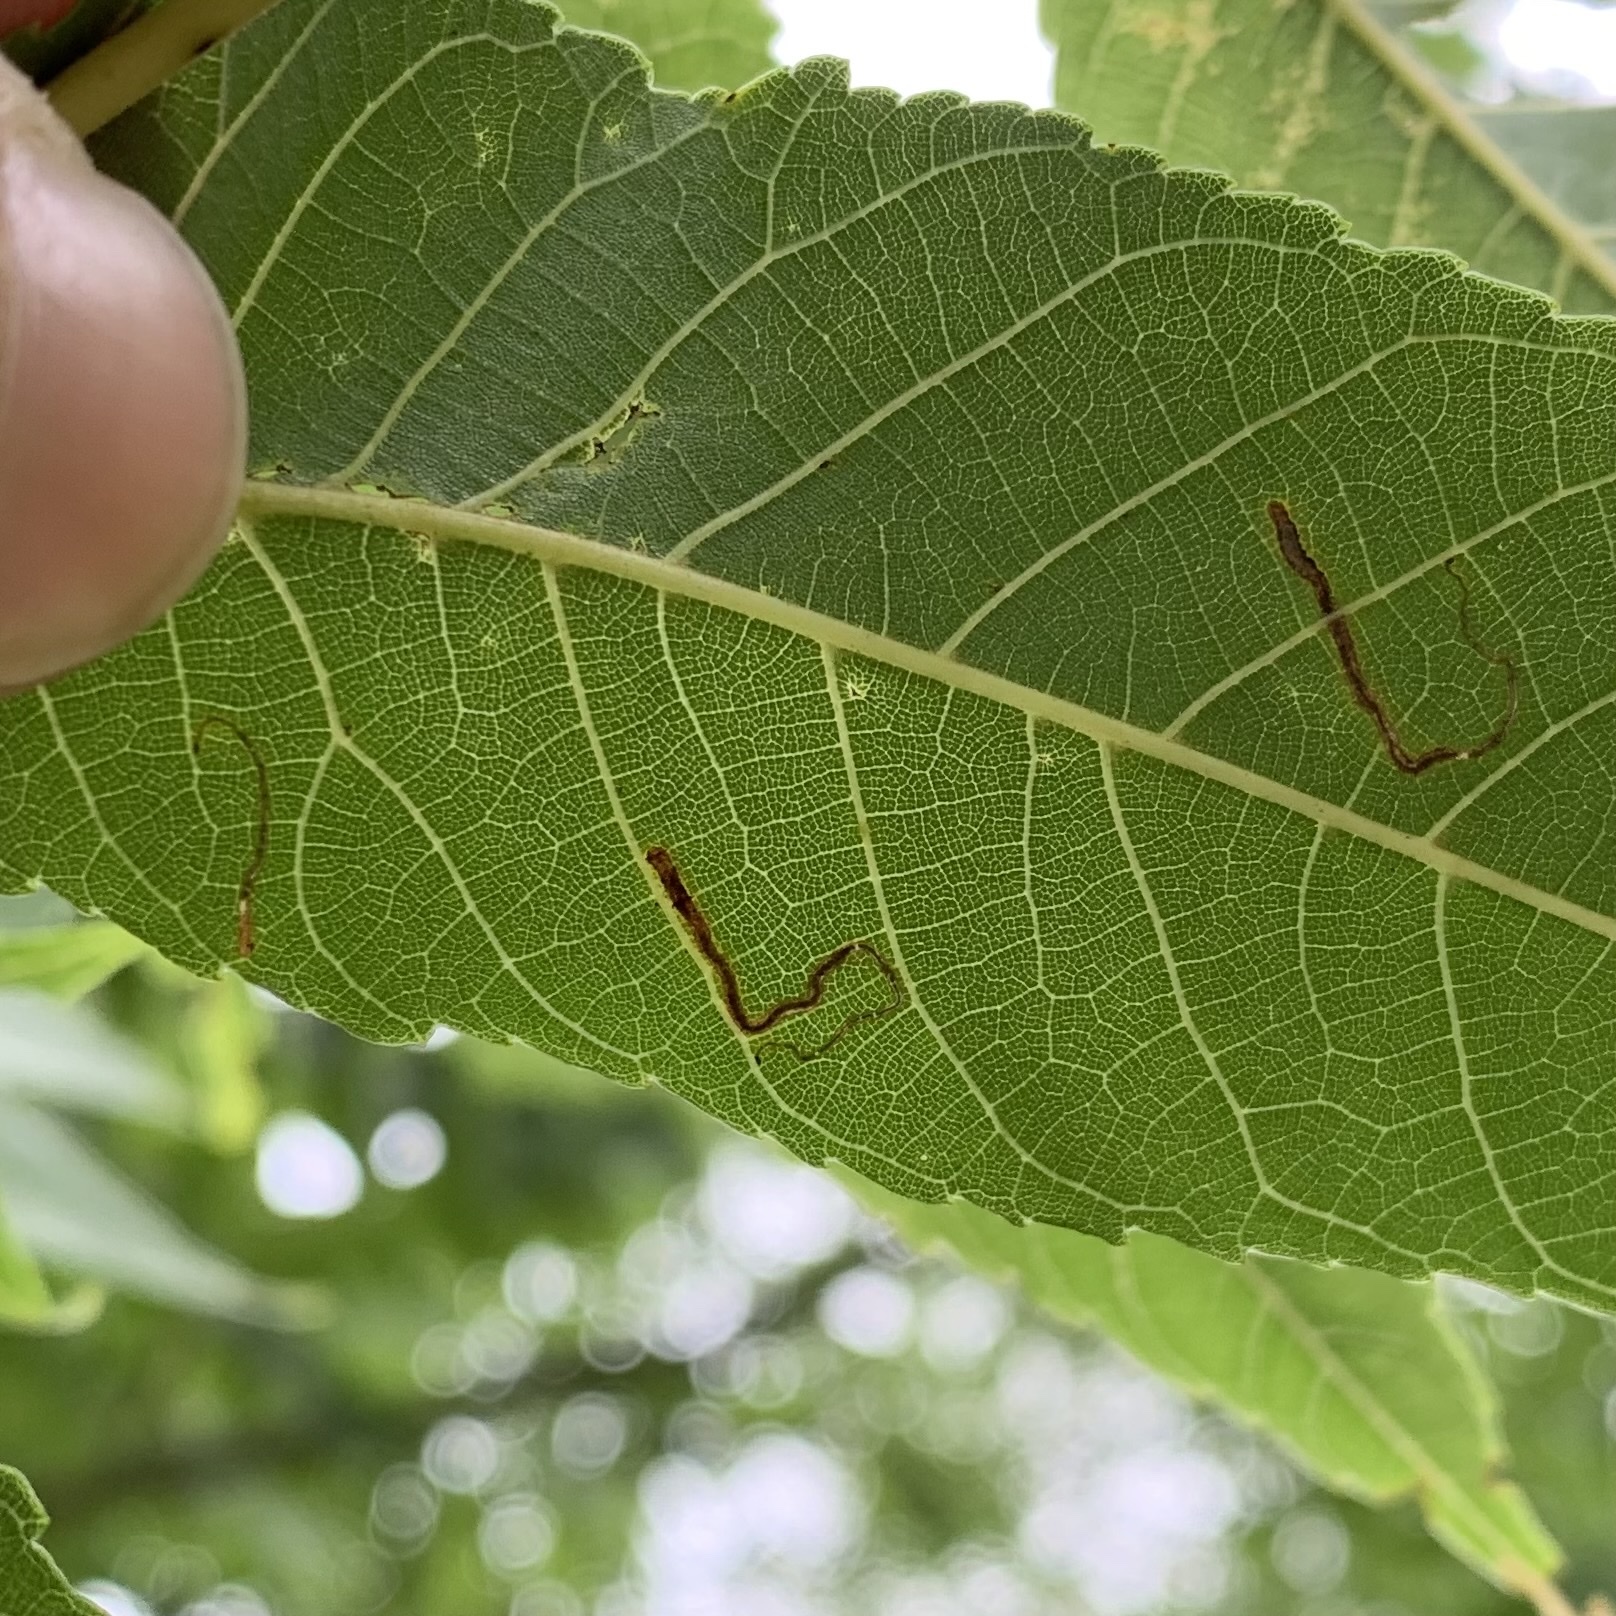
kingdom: Animalia
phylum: Arthropoda
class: Insecta
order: Lepidoptera
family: Nepticulidae
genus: Stigmella
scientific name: Stigmella juglandifoliella
